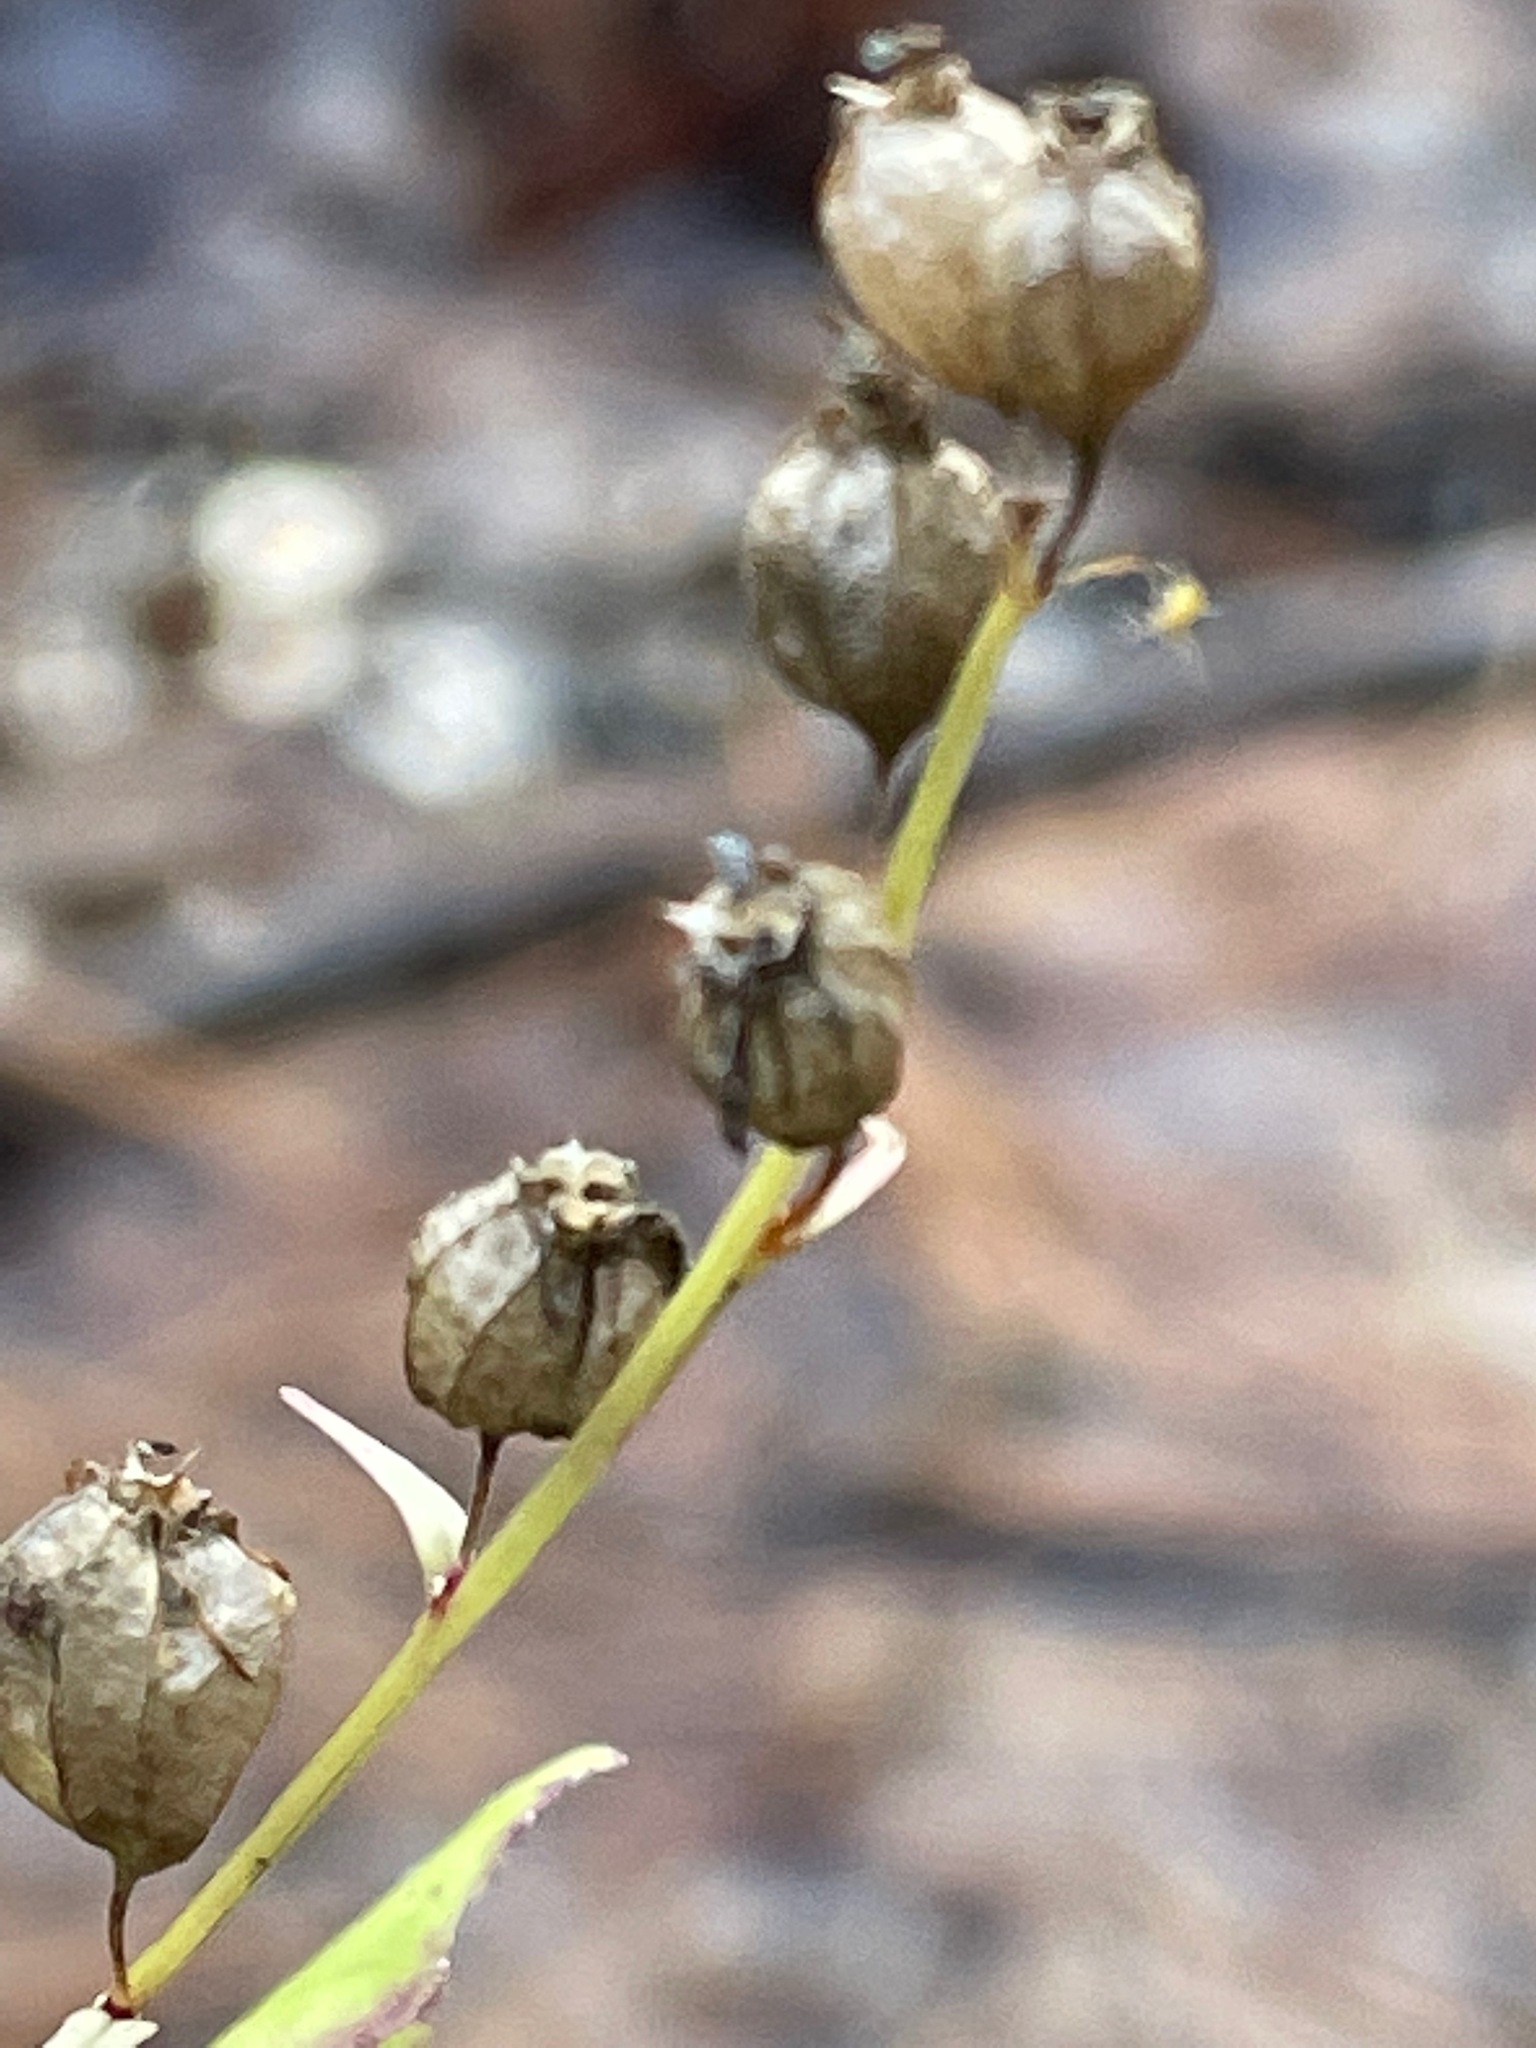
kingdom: Plantae
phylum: Tracheophyta
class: Magnoliopsida
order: Asterales
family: Campanulaceae
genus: Lobelia
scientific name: Lobelia inflata
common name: Indian tobacco
